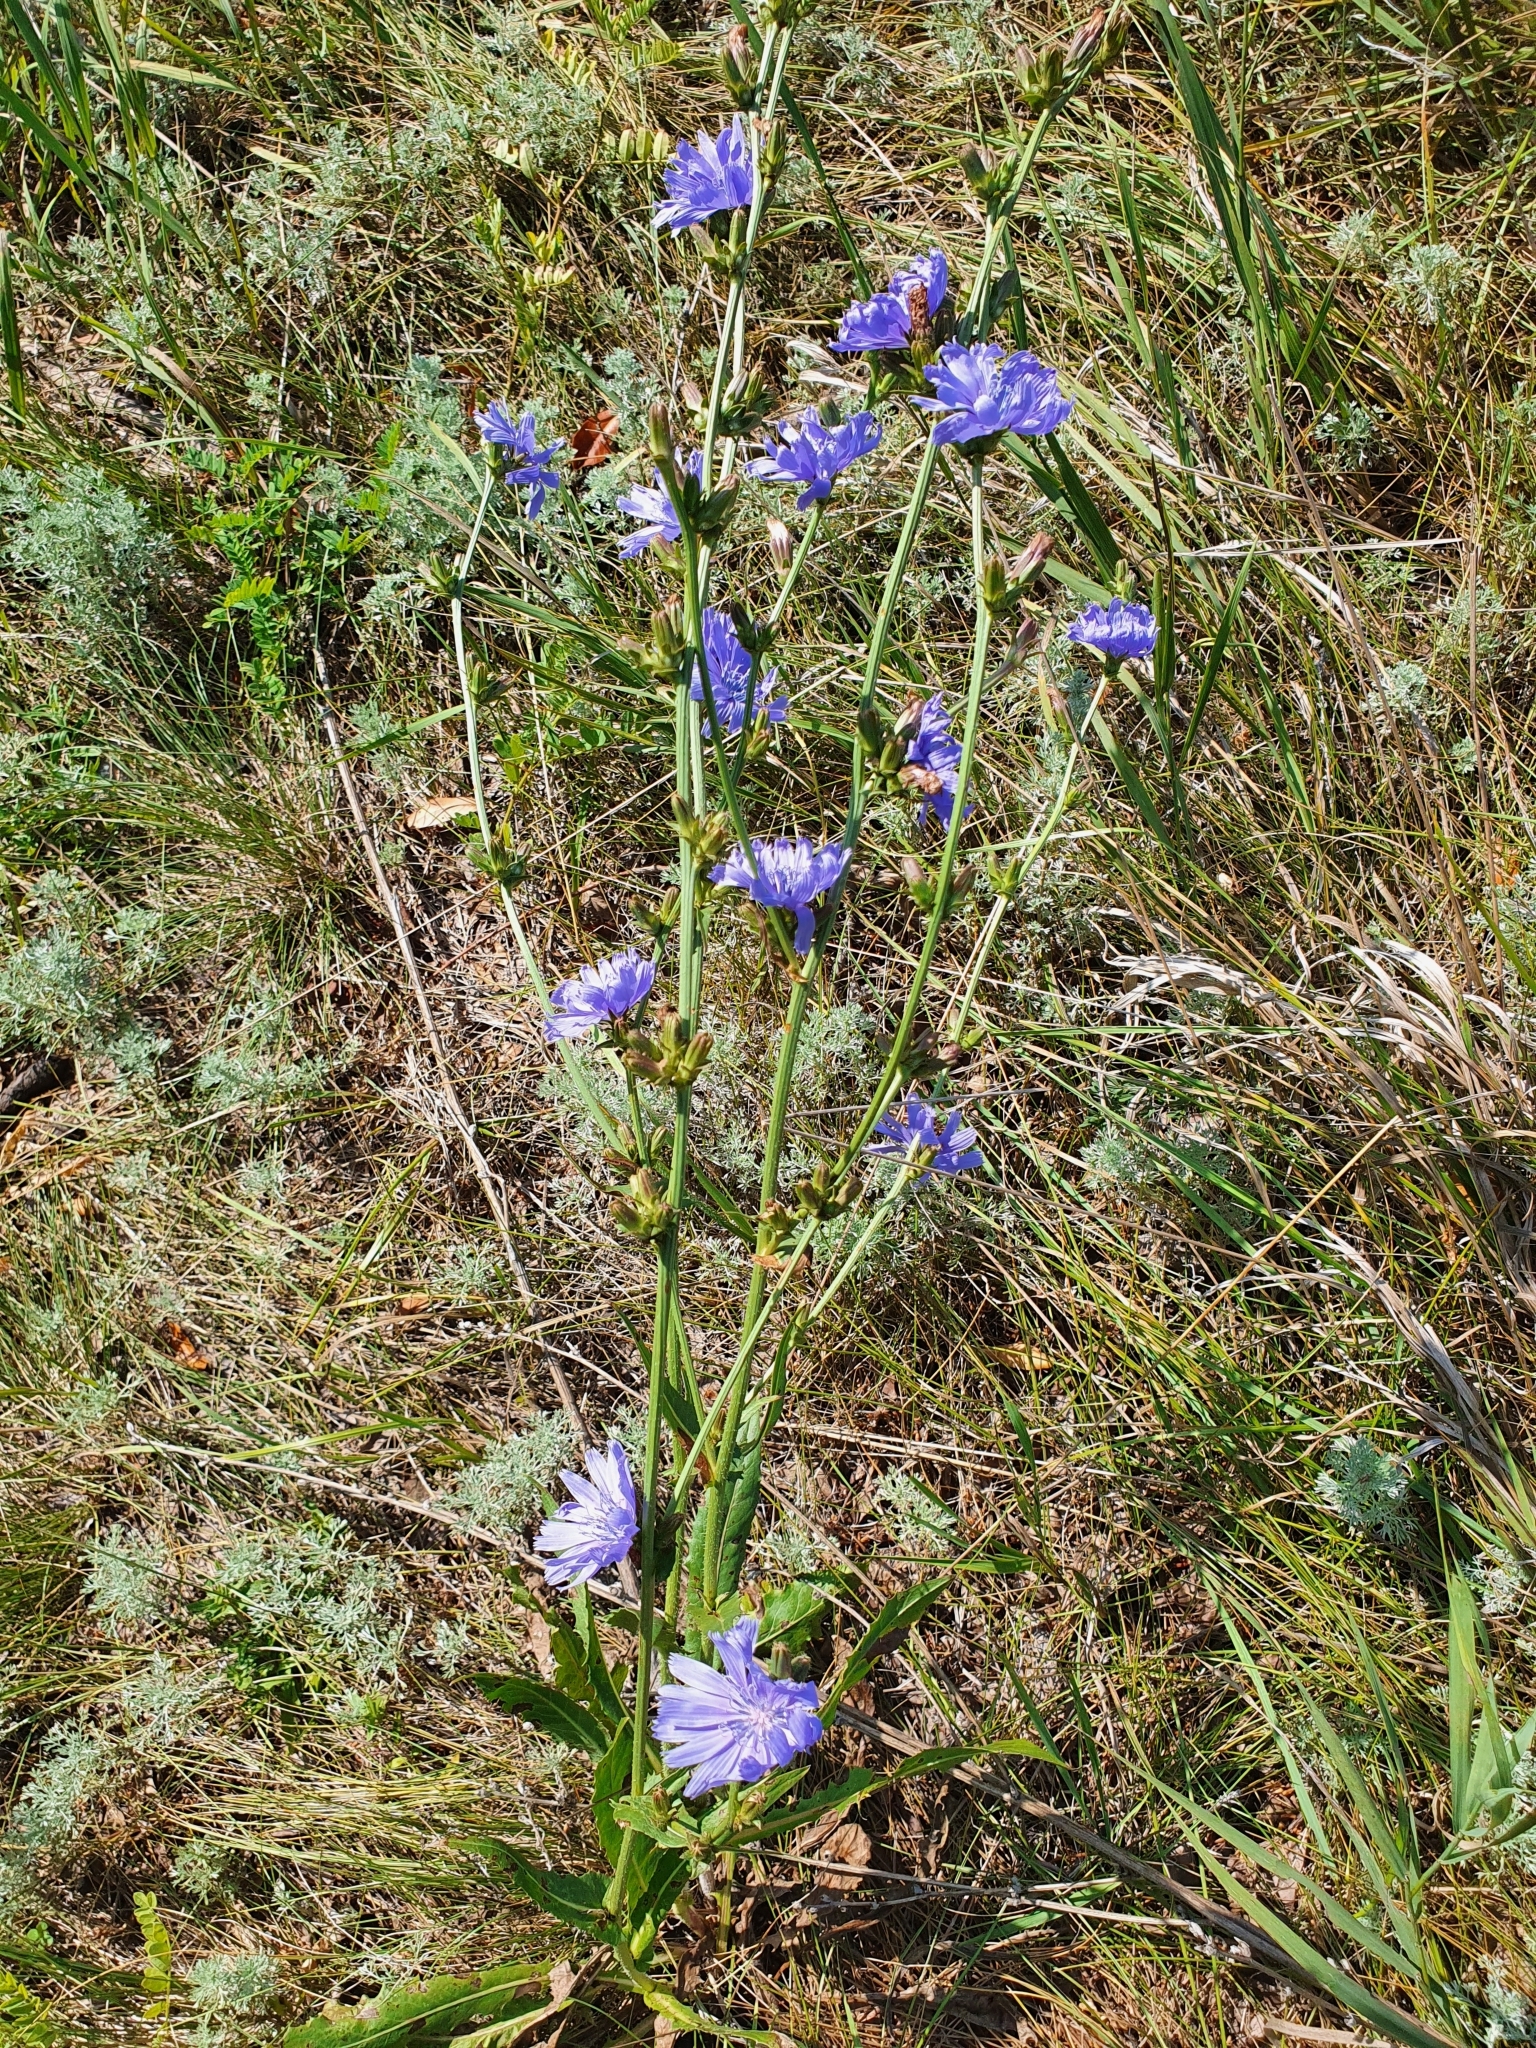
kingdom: Plantae
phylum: Tracheophyta
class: Magnoliopsida
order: Asterales
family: Asteraceae
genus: Cichorium
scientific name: Cichorium intybus
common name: Chicory
